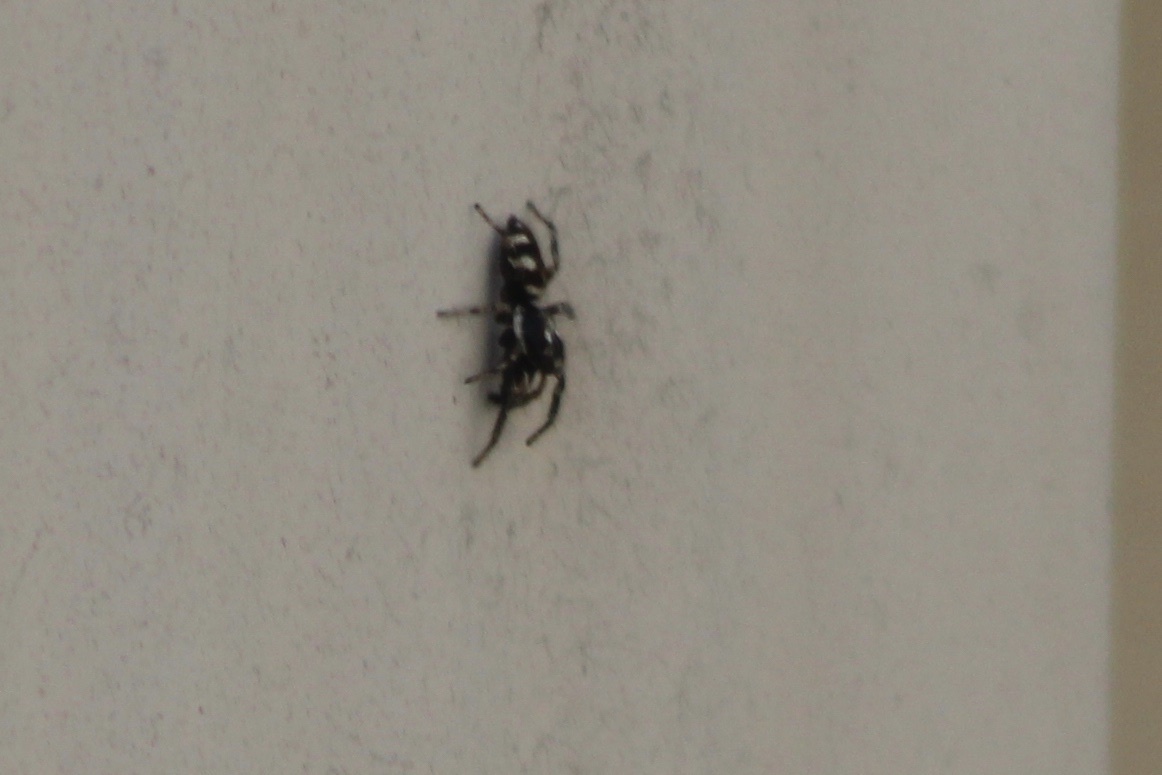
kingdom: Animalia
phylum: Arthropoda
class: Arachnida
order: Araneae
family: Salticidae
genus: Salticus
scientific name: Salticus scenicus
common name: Zebra jumper
